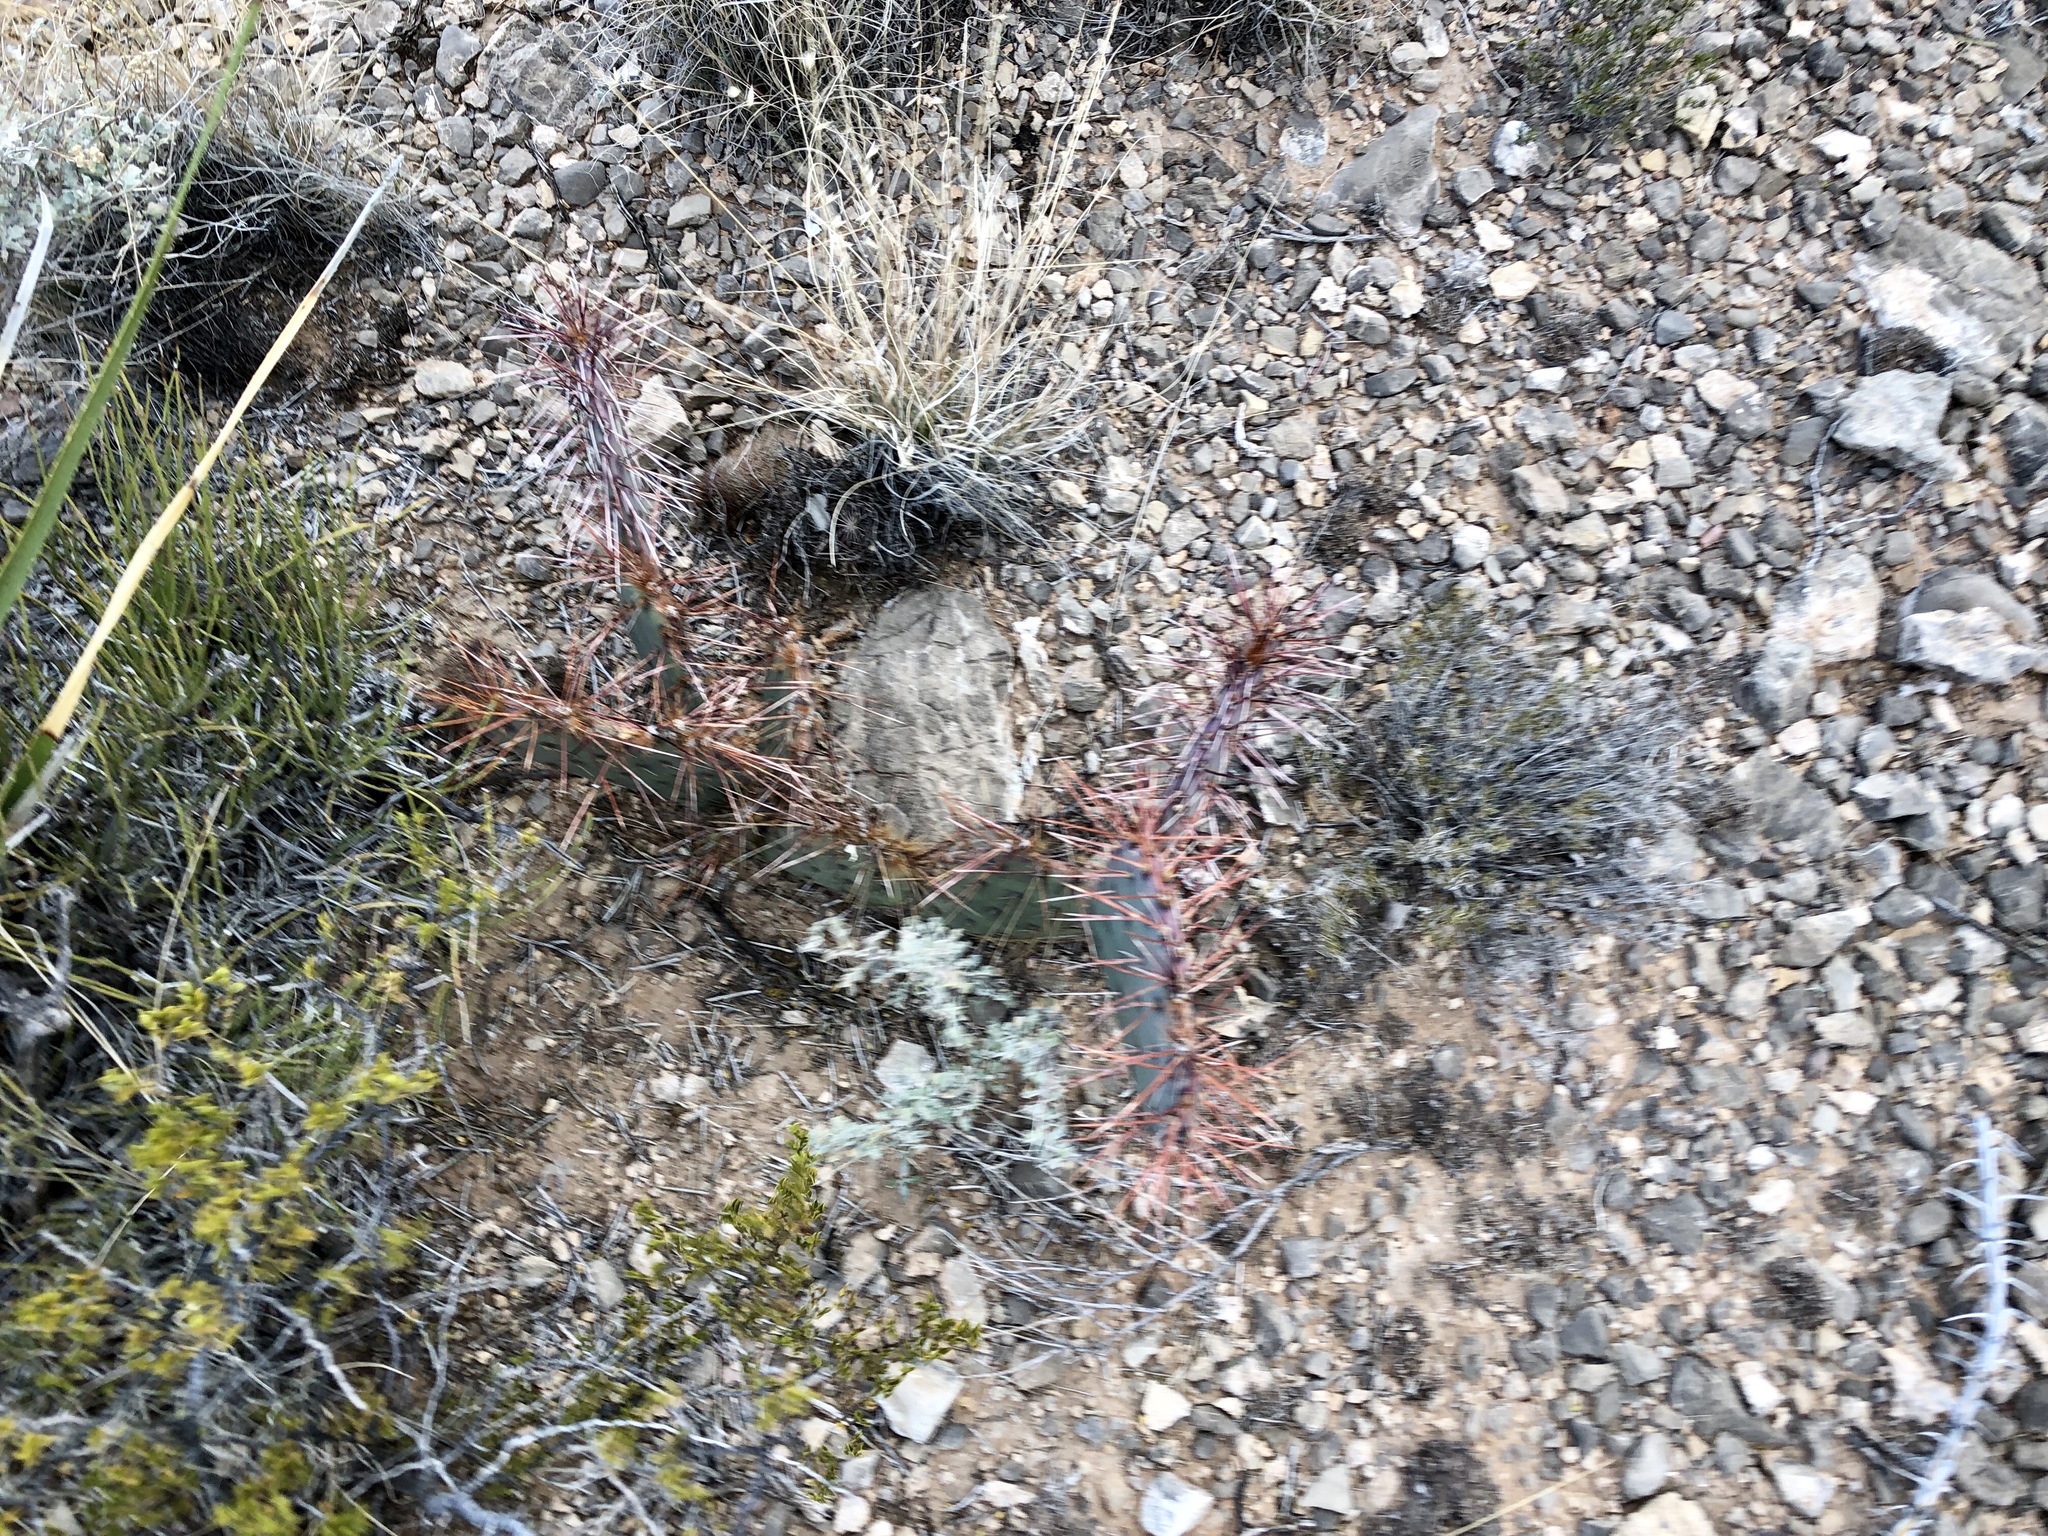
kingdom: Plantae
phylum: Tracheophyta
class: Magnoliopsida
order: Caryophyllales
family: Cactaceae
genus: Opuntia
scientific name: Opuntia phaeacantha
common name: New mexico prickly-pear
